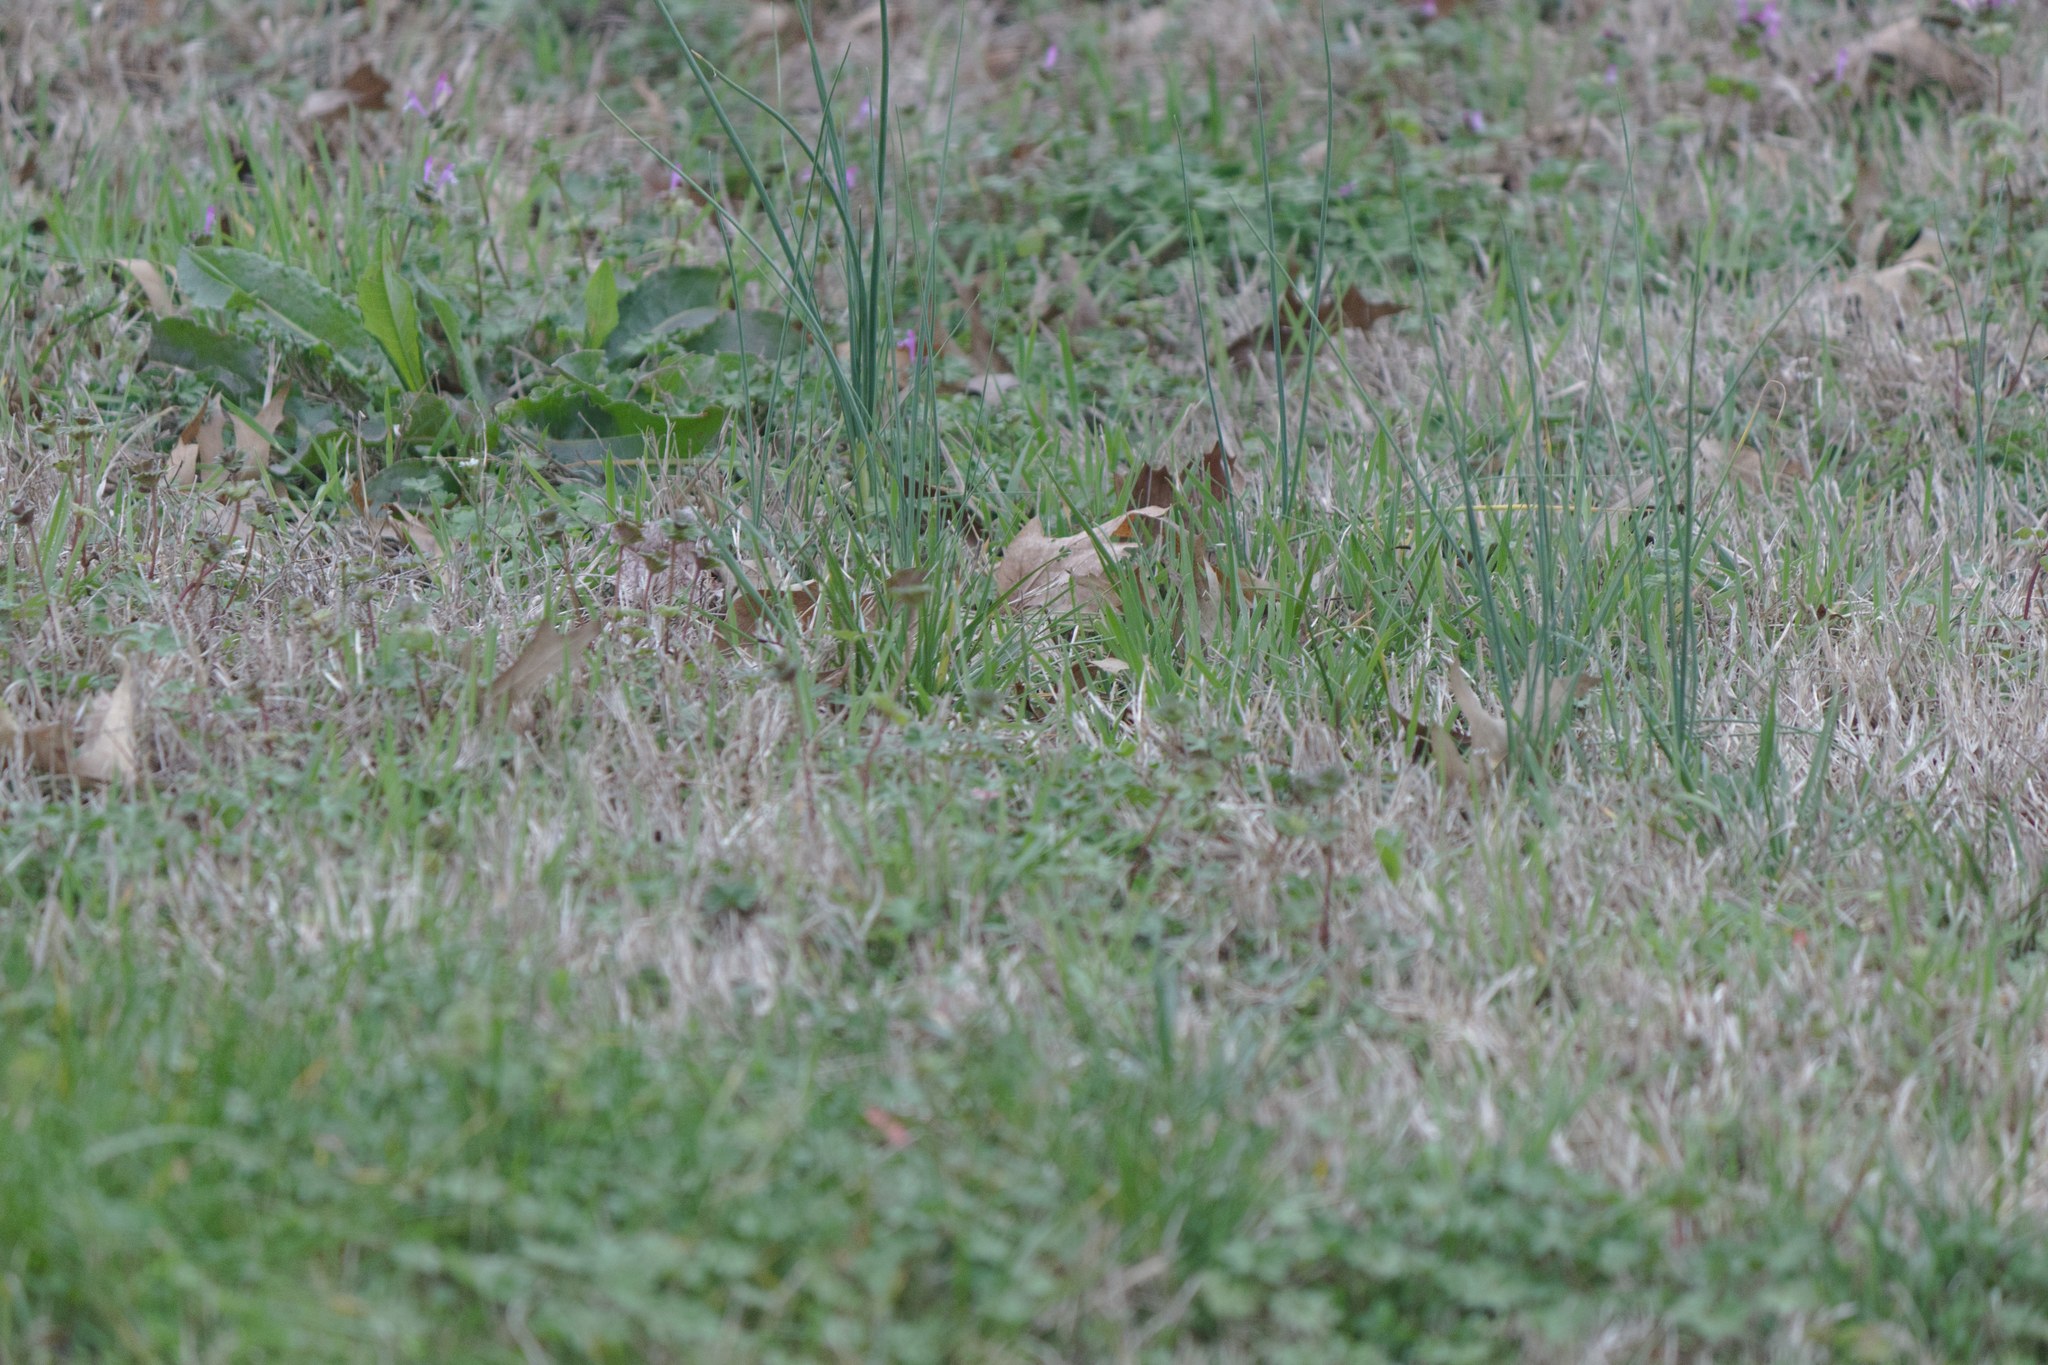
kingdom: Plantae
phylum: Tracheophyta
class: Liliopsida
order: Asparagales
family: Amaryllidaceae
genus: Allium
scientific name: Allium vineale
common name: Crow garlic
